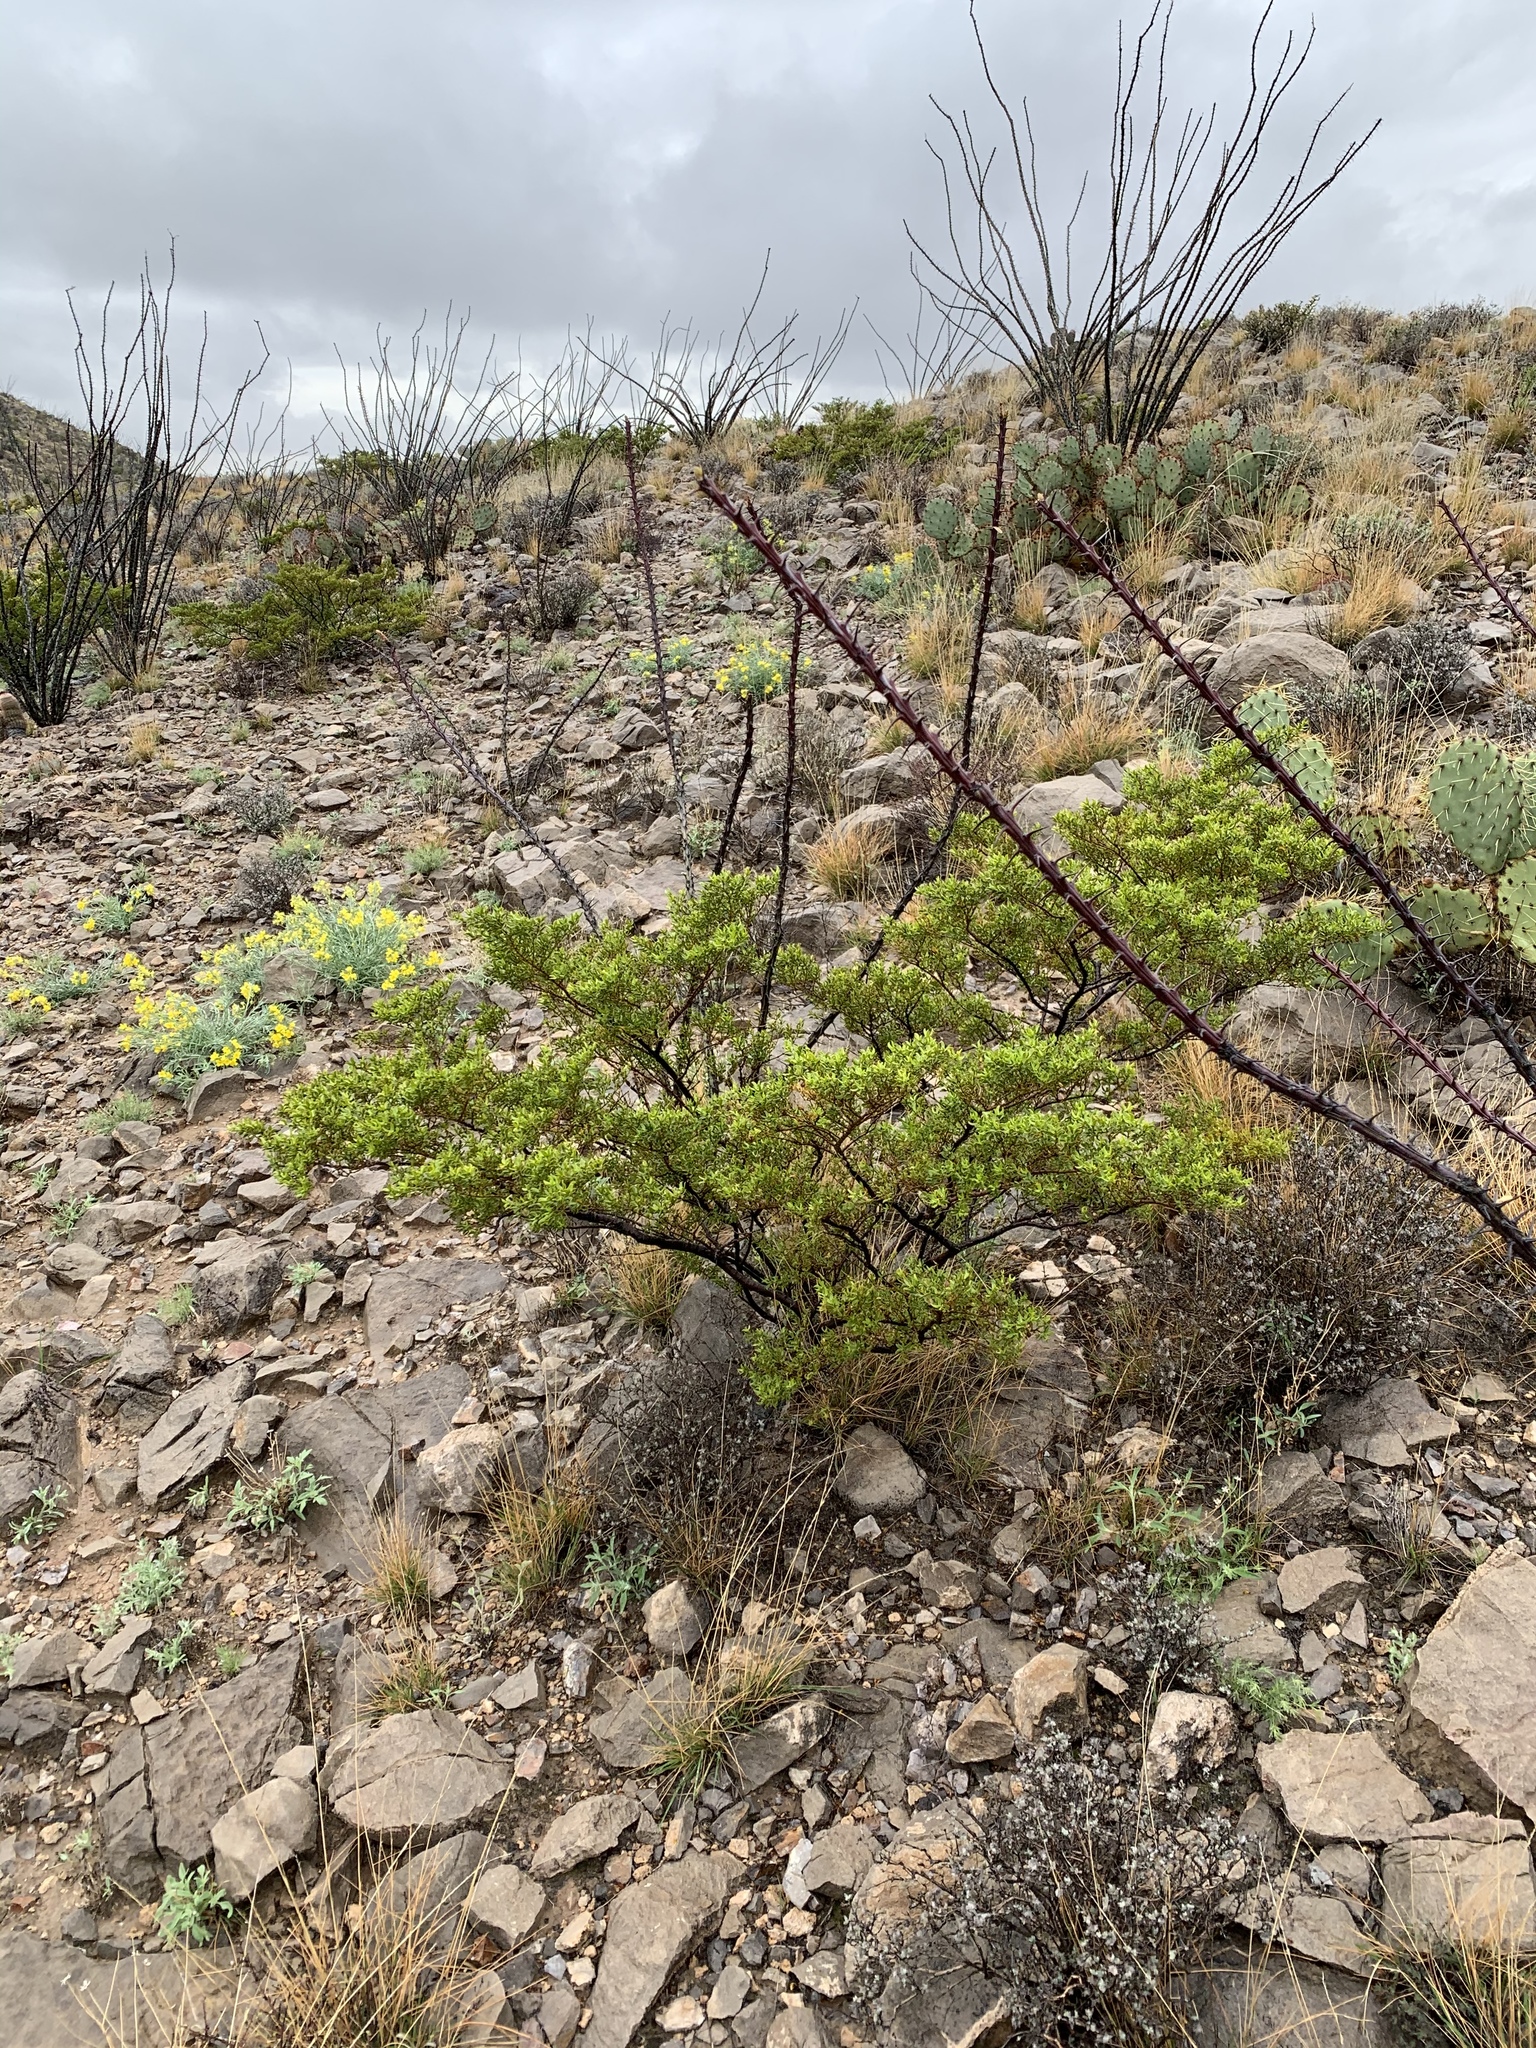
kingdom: Plantae
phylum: Tracheophyta
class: Magnoliopsida
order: Zygophyllales
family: Zygophyllaceae
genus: Larrea
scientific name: Larrea tridentata
